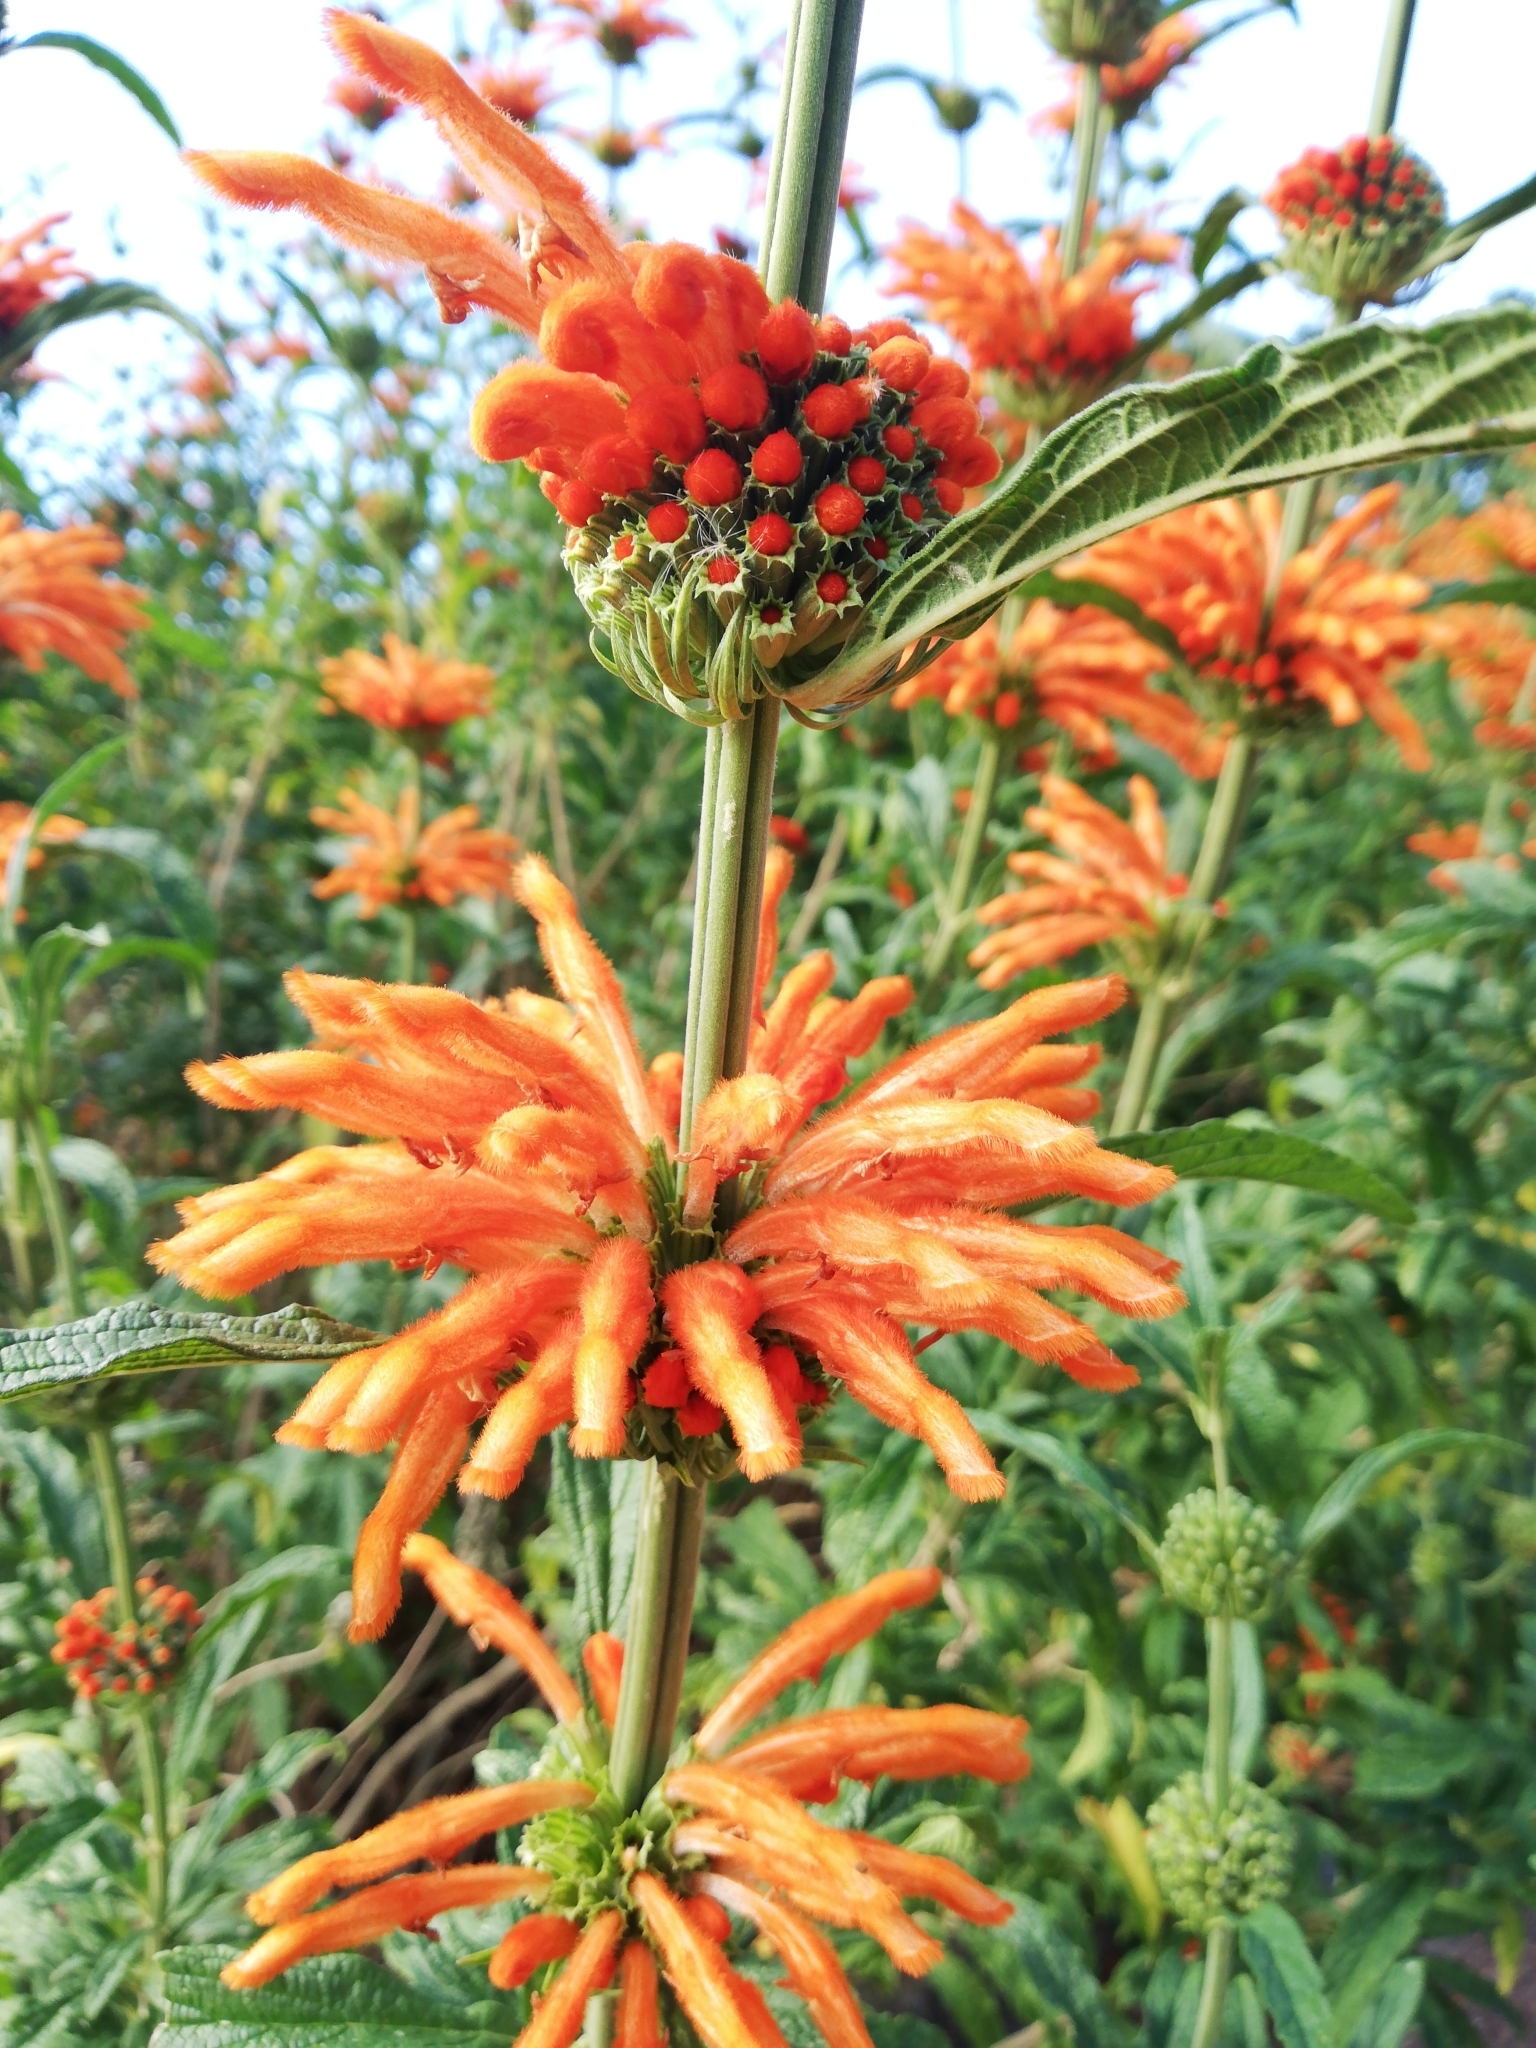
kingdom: Plantae
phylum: Tracheophyta
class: Magnoliopsida
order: Lamiales
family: Lamiaceae
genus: Leonotis
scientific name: Leonotis leonurus
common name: Lion's ear
